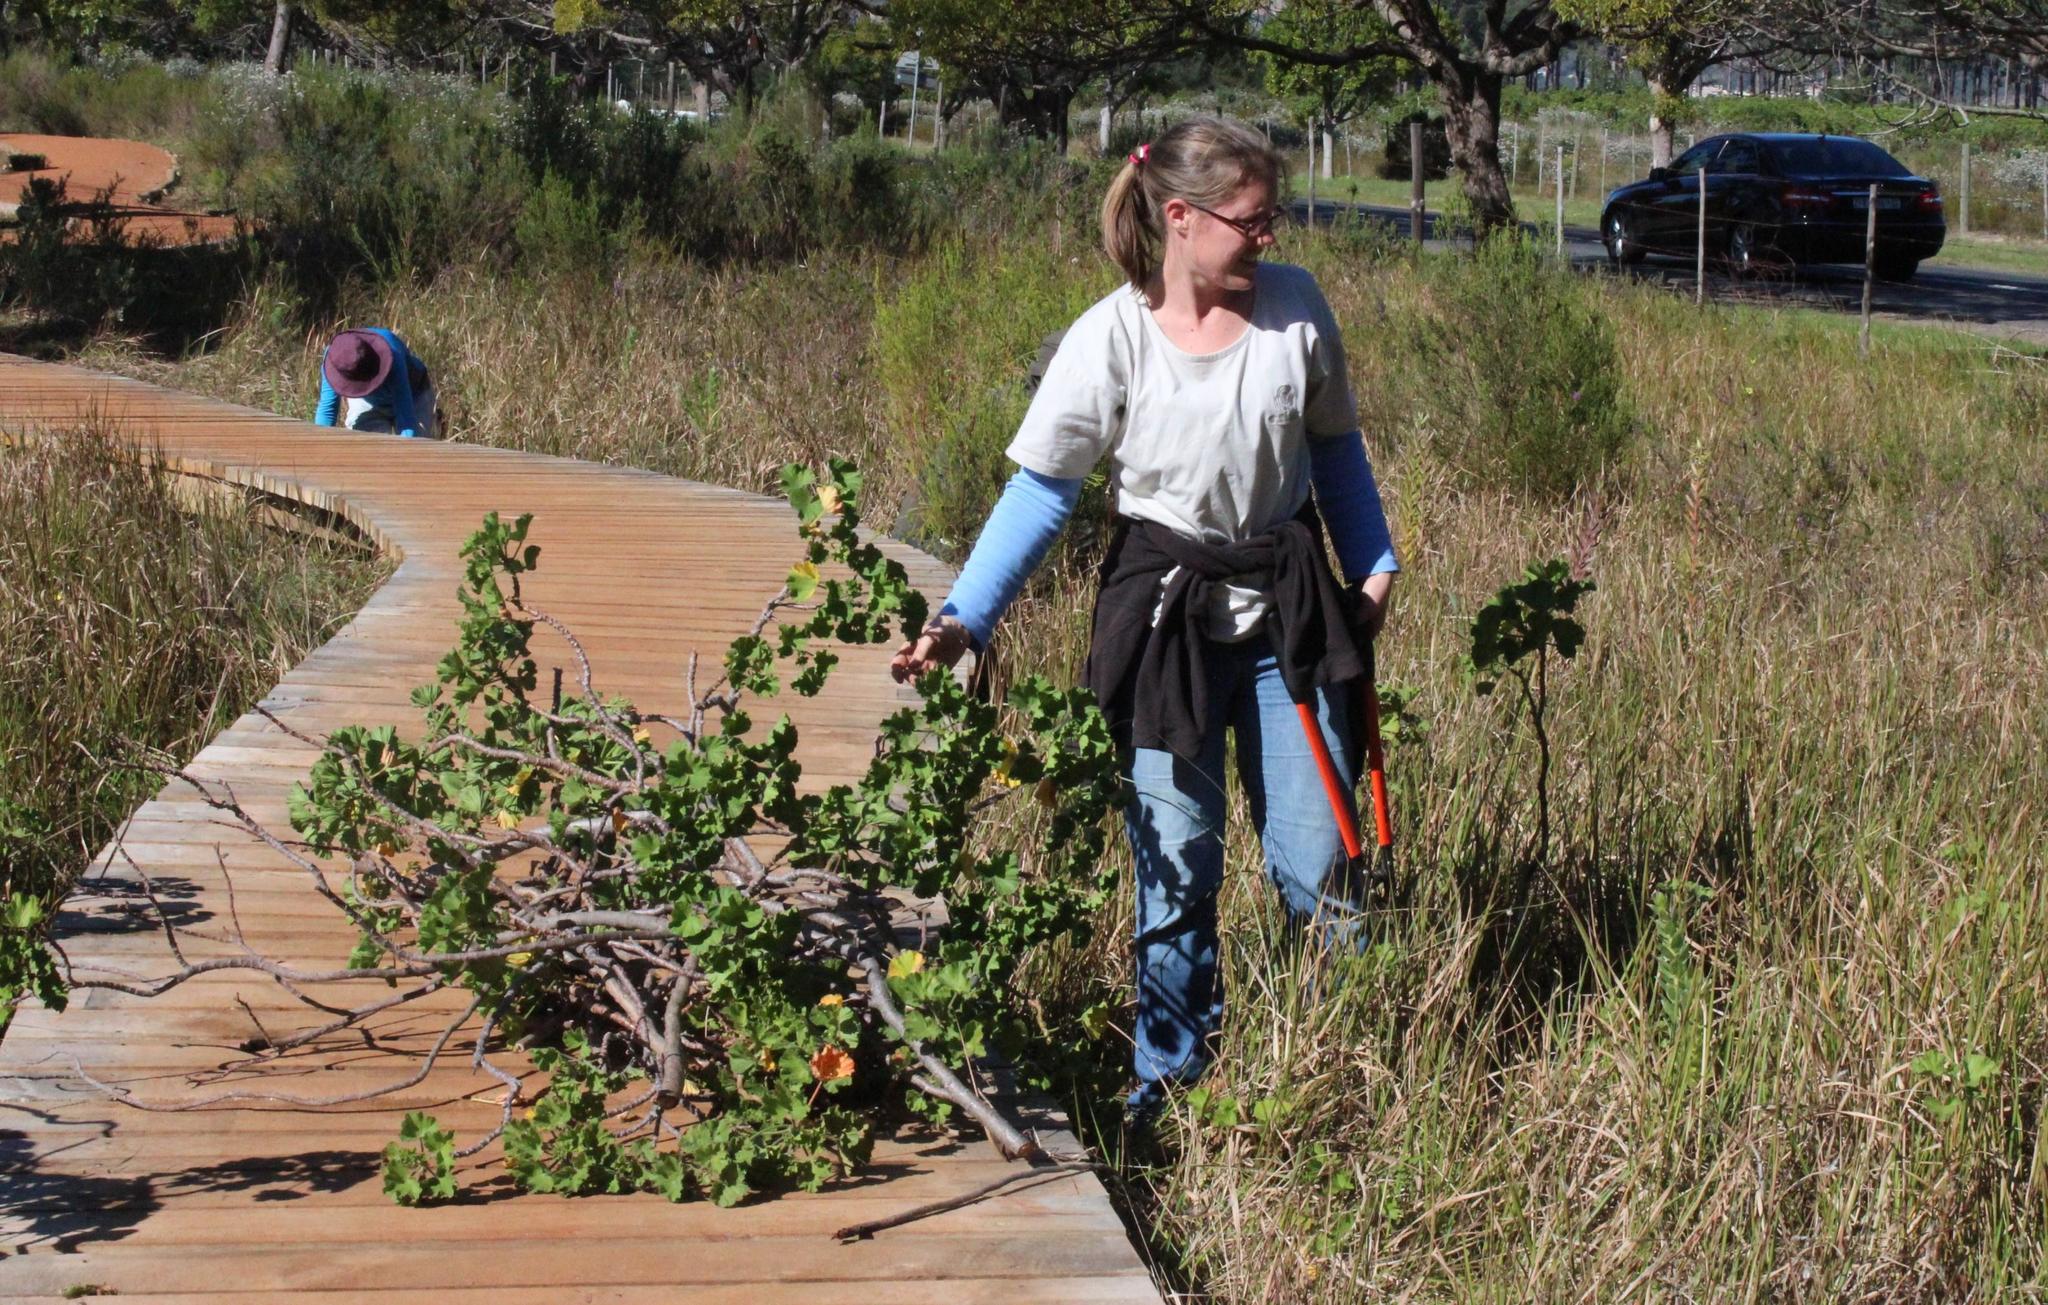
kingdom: Plantae
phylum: Tracheophyta
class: Magnoliopsida
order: Geraniales
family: Geraniaceae
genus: Pelargonium
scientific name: Pelargonium cucullatum
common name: Tree pelargonium
